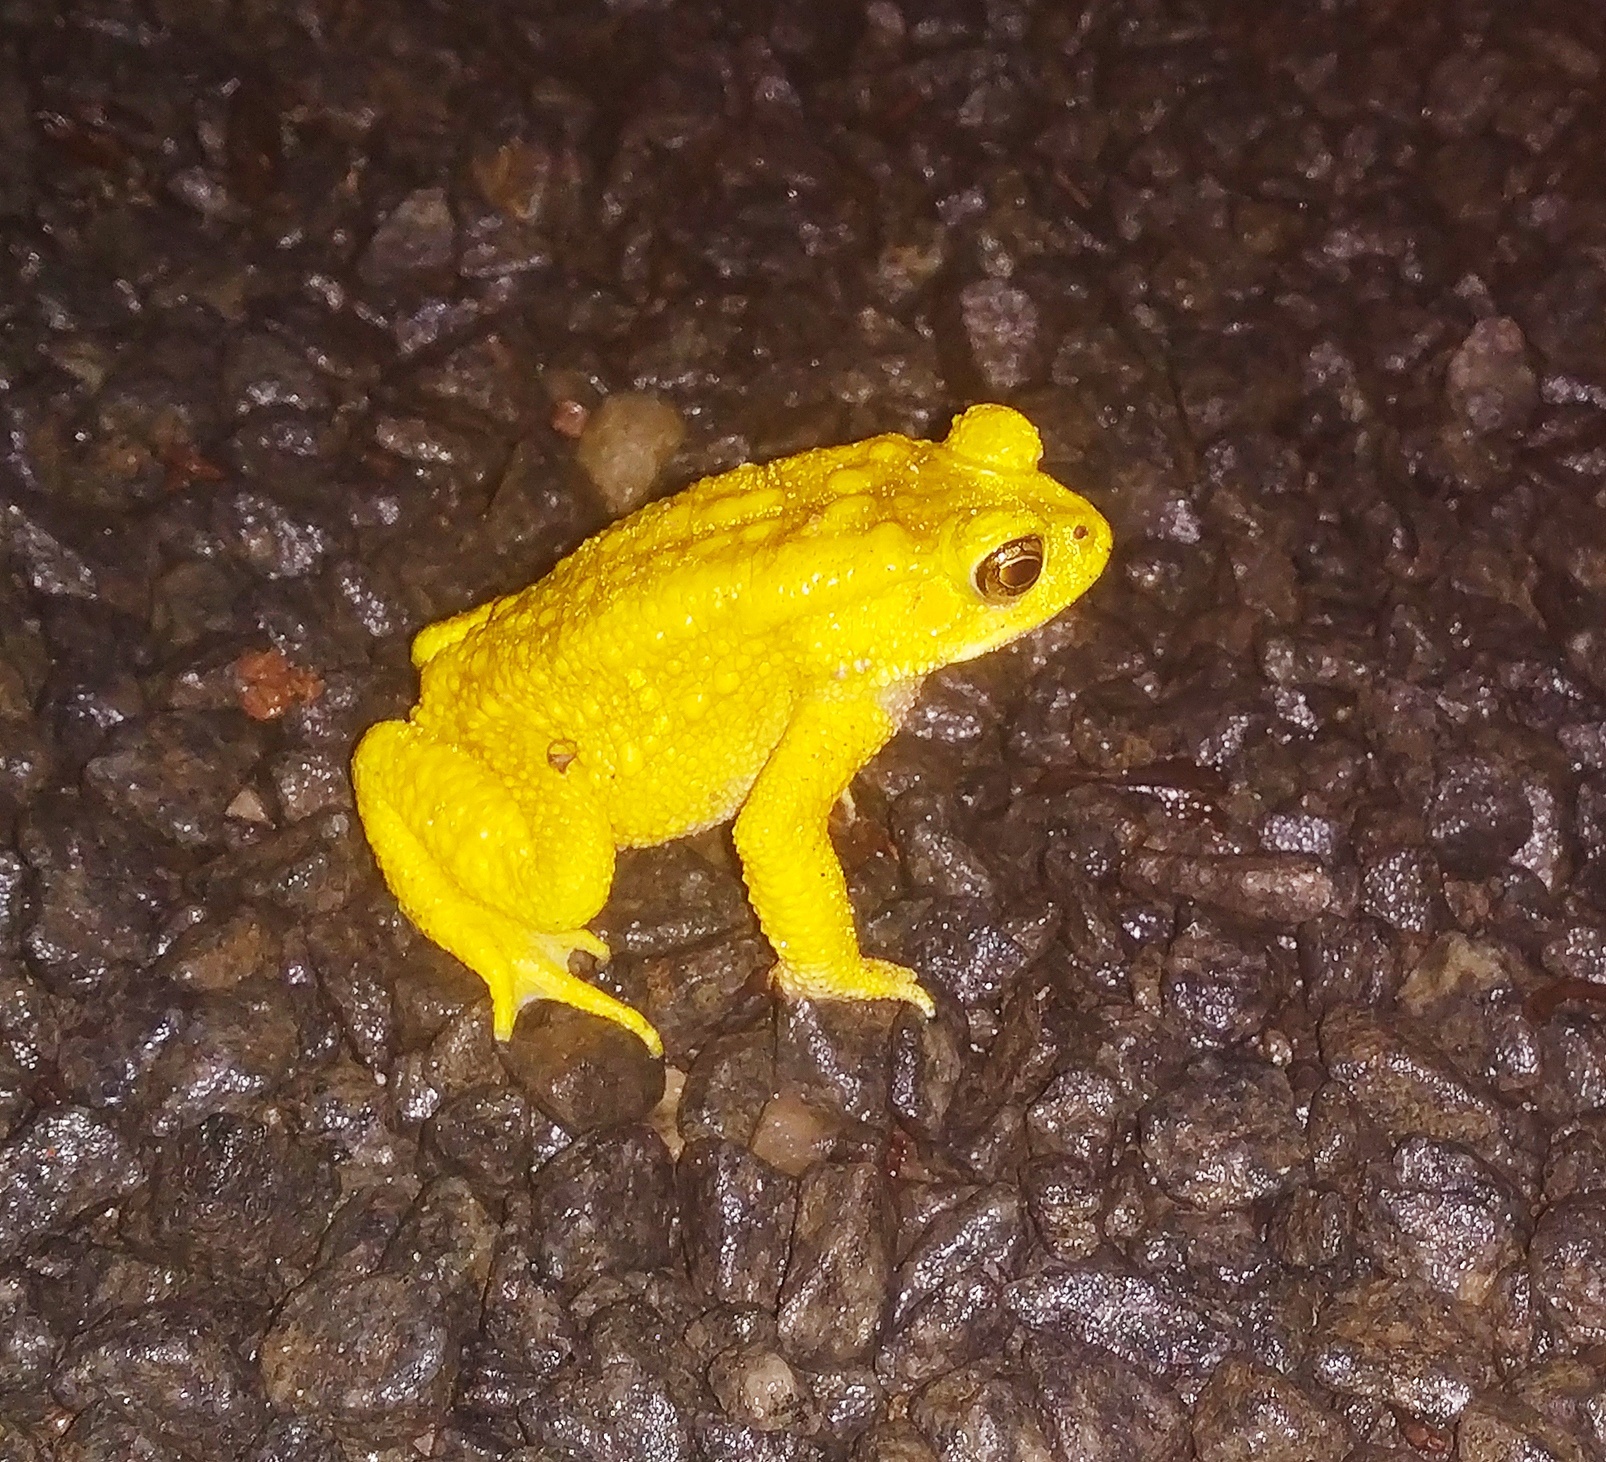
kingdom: Animalia
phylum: Chordata
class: Amphibia
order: Anura
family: Bufonidae
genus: Duttaphrynus
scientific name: Duttaphrynus melanostictus
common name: Common sunda toad
